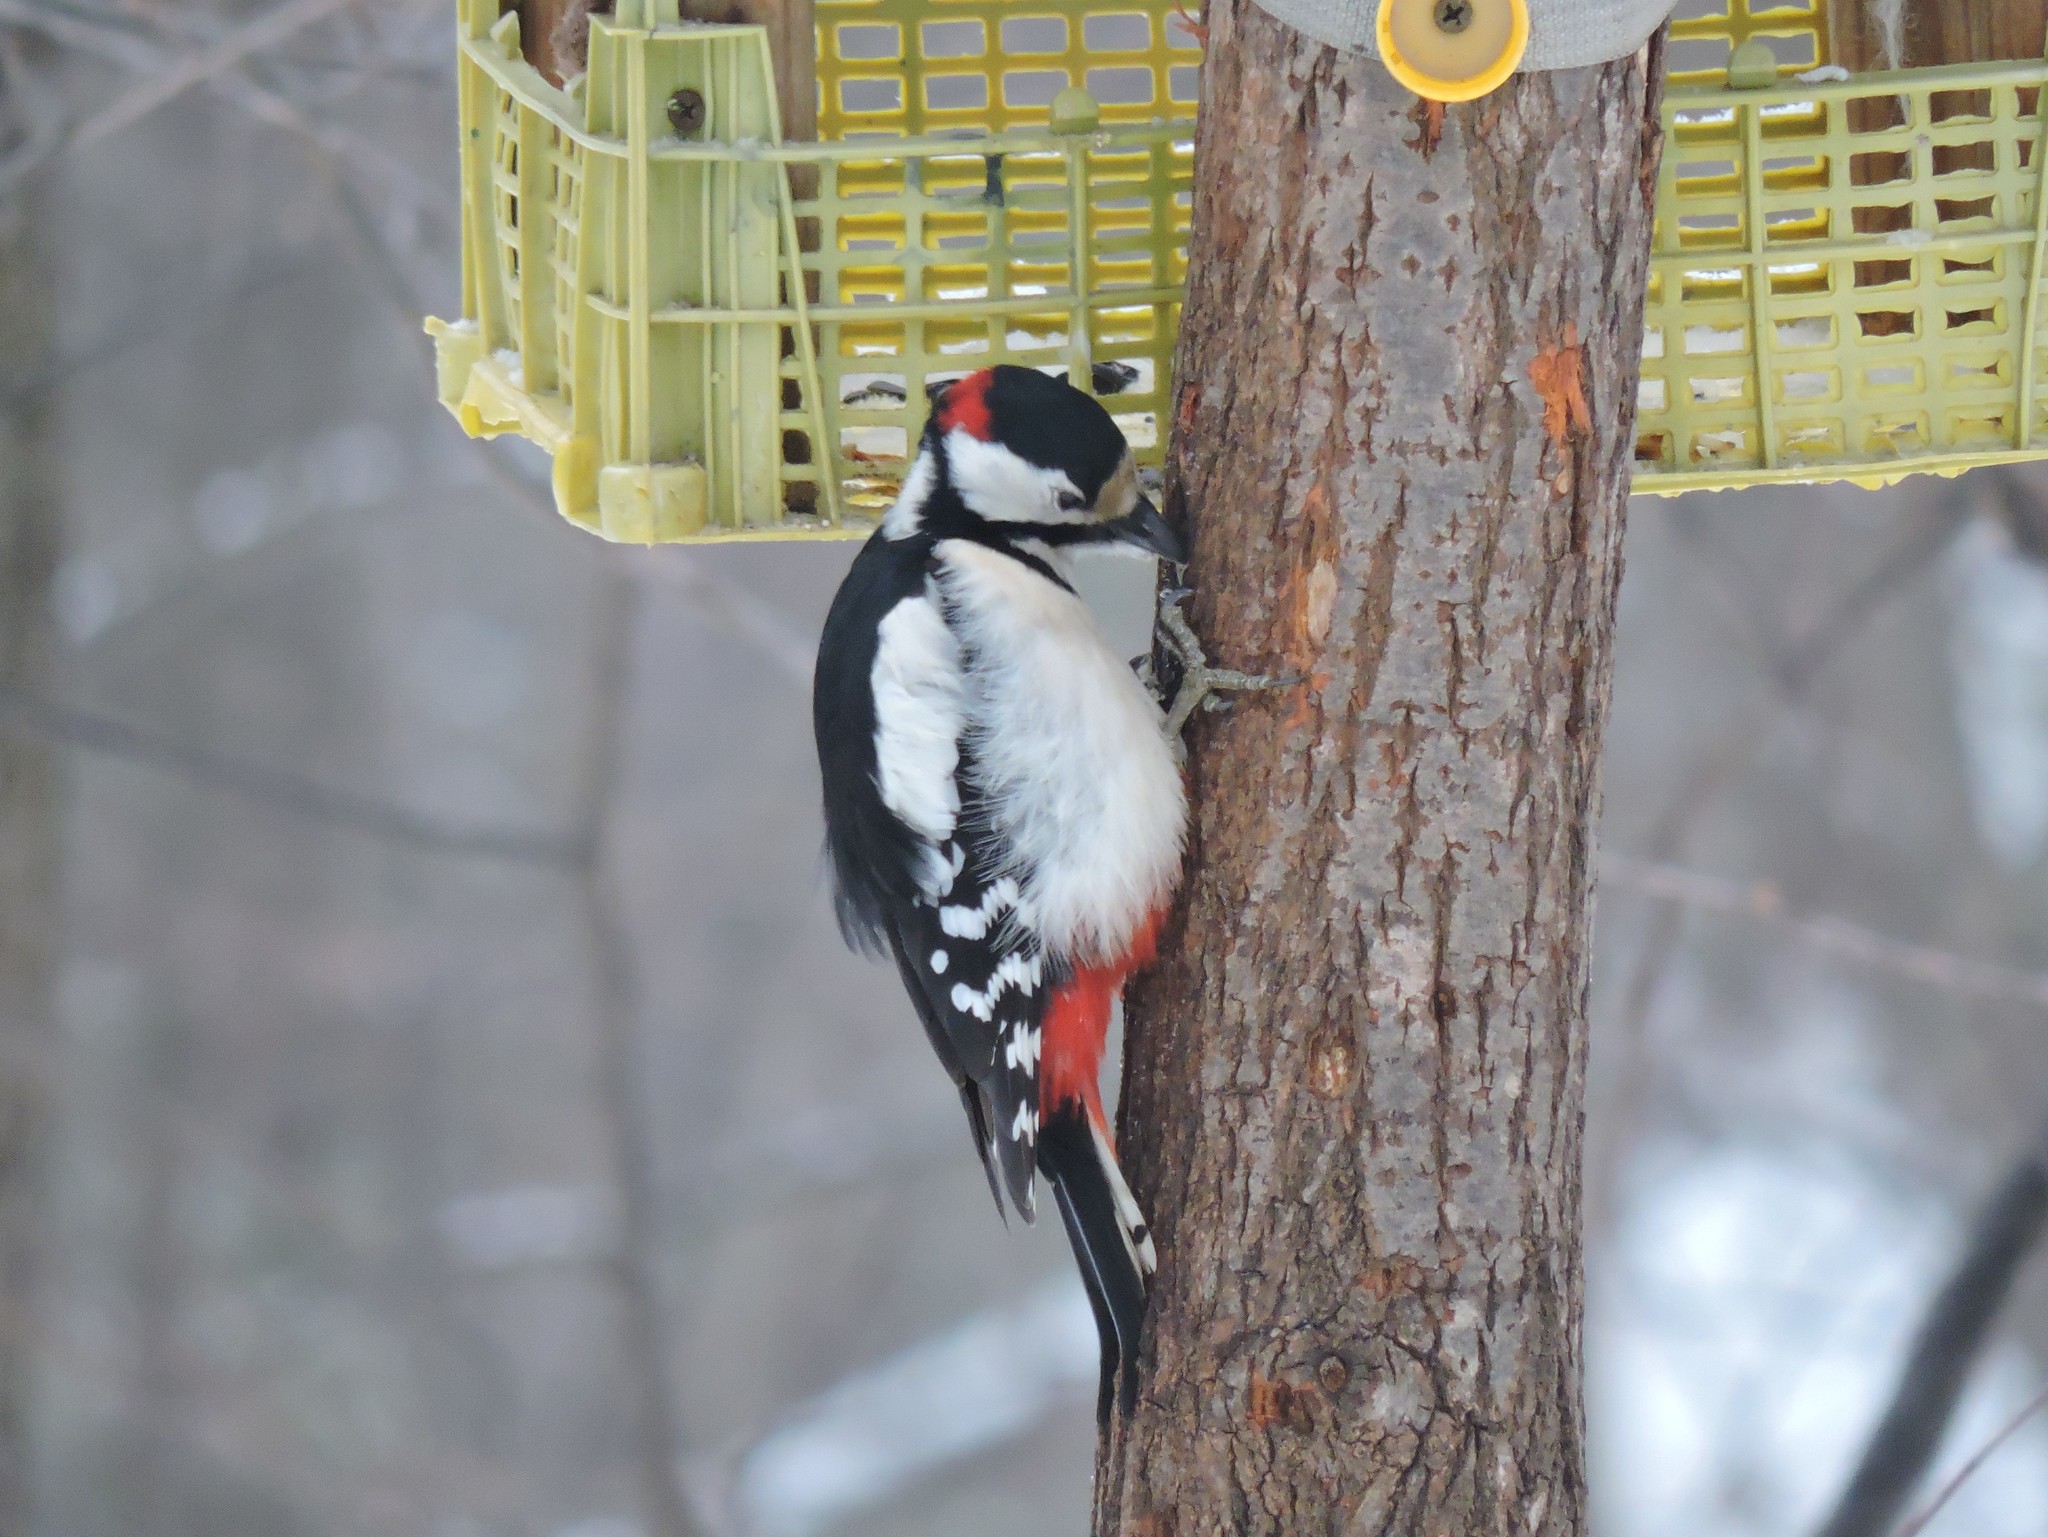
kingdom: Animalia
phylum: Chordata
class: Aves
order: Piciformes
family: Picidae
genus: Dendrocopos
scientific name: Dendrocopos major
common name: Great spotted woodpecker
